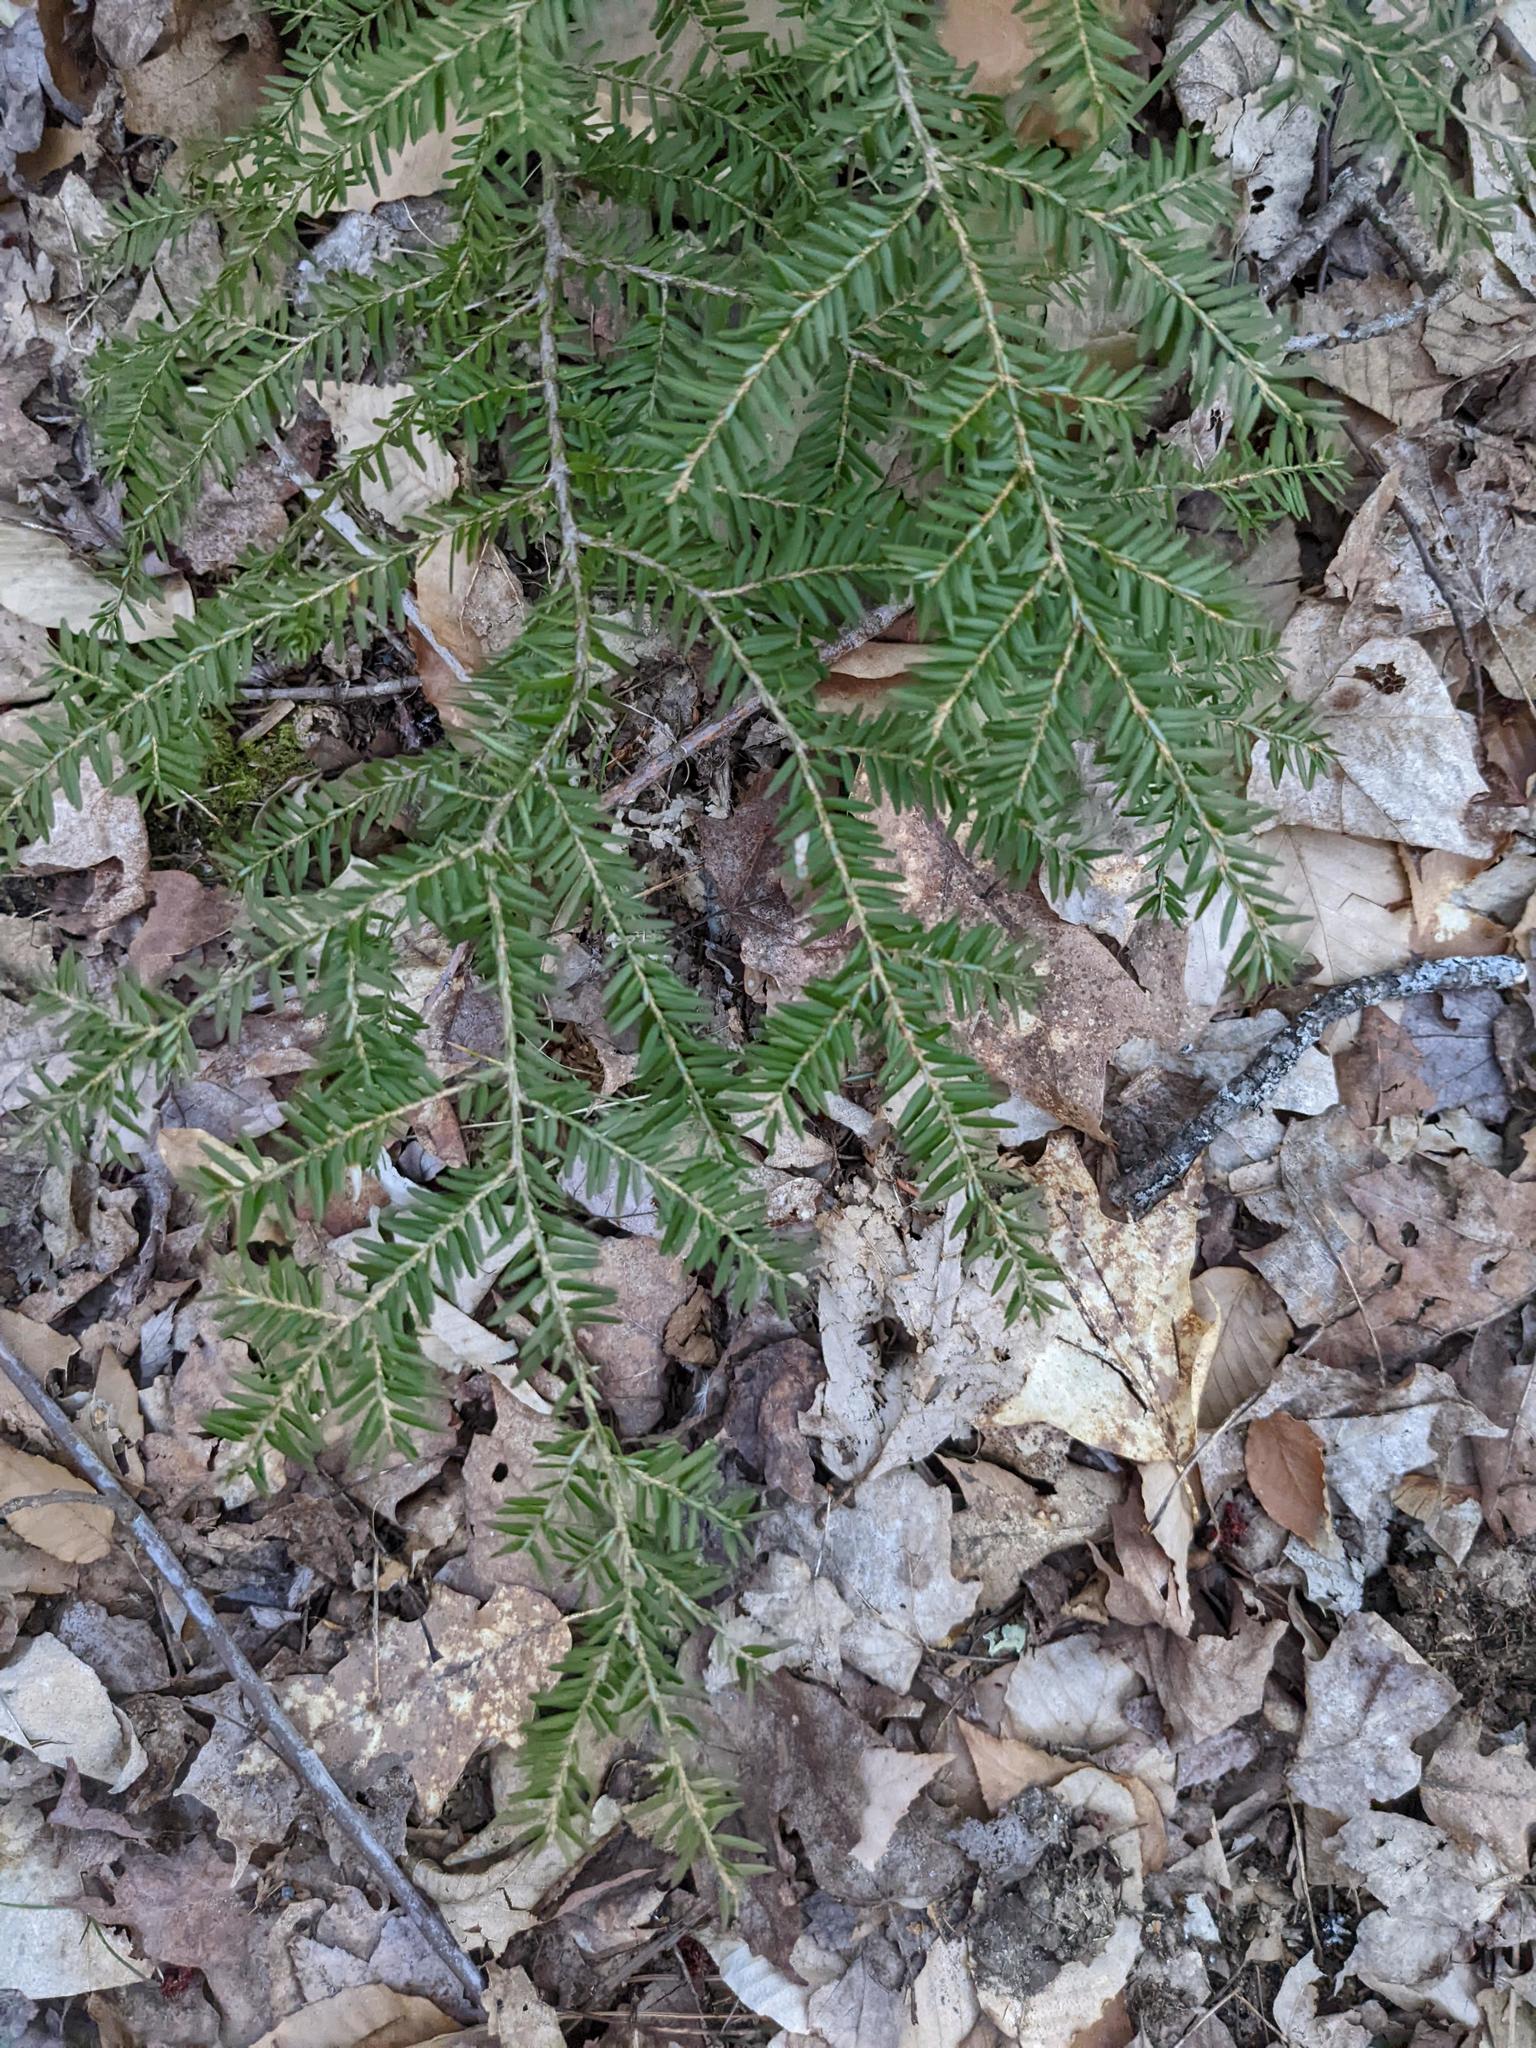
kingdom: Plantae
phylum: Tracheophyta
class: Pinopsida
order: Pinales
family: Pinaceae
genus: Tsuga
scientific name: Tsuga canadensis
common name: Eastern hemlock
